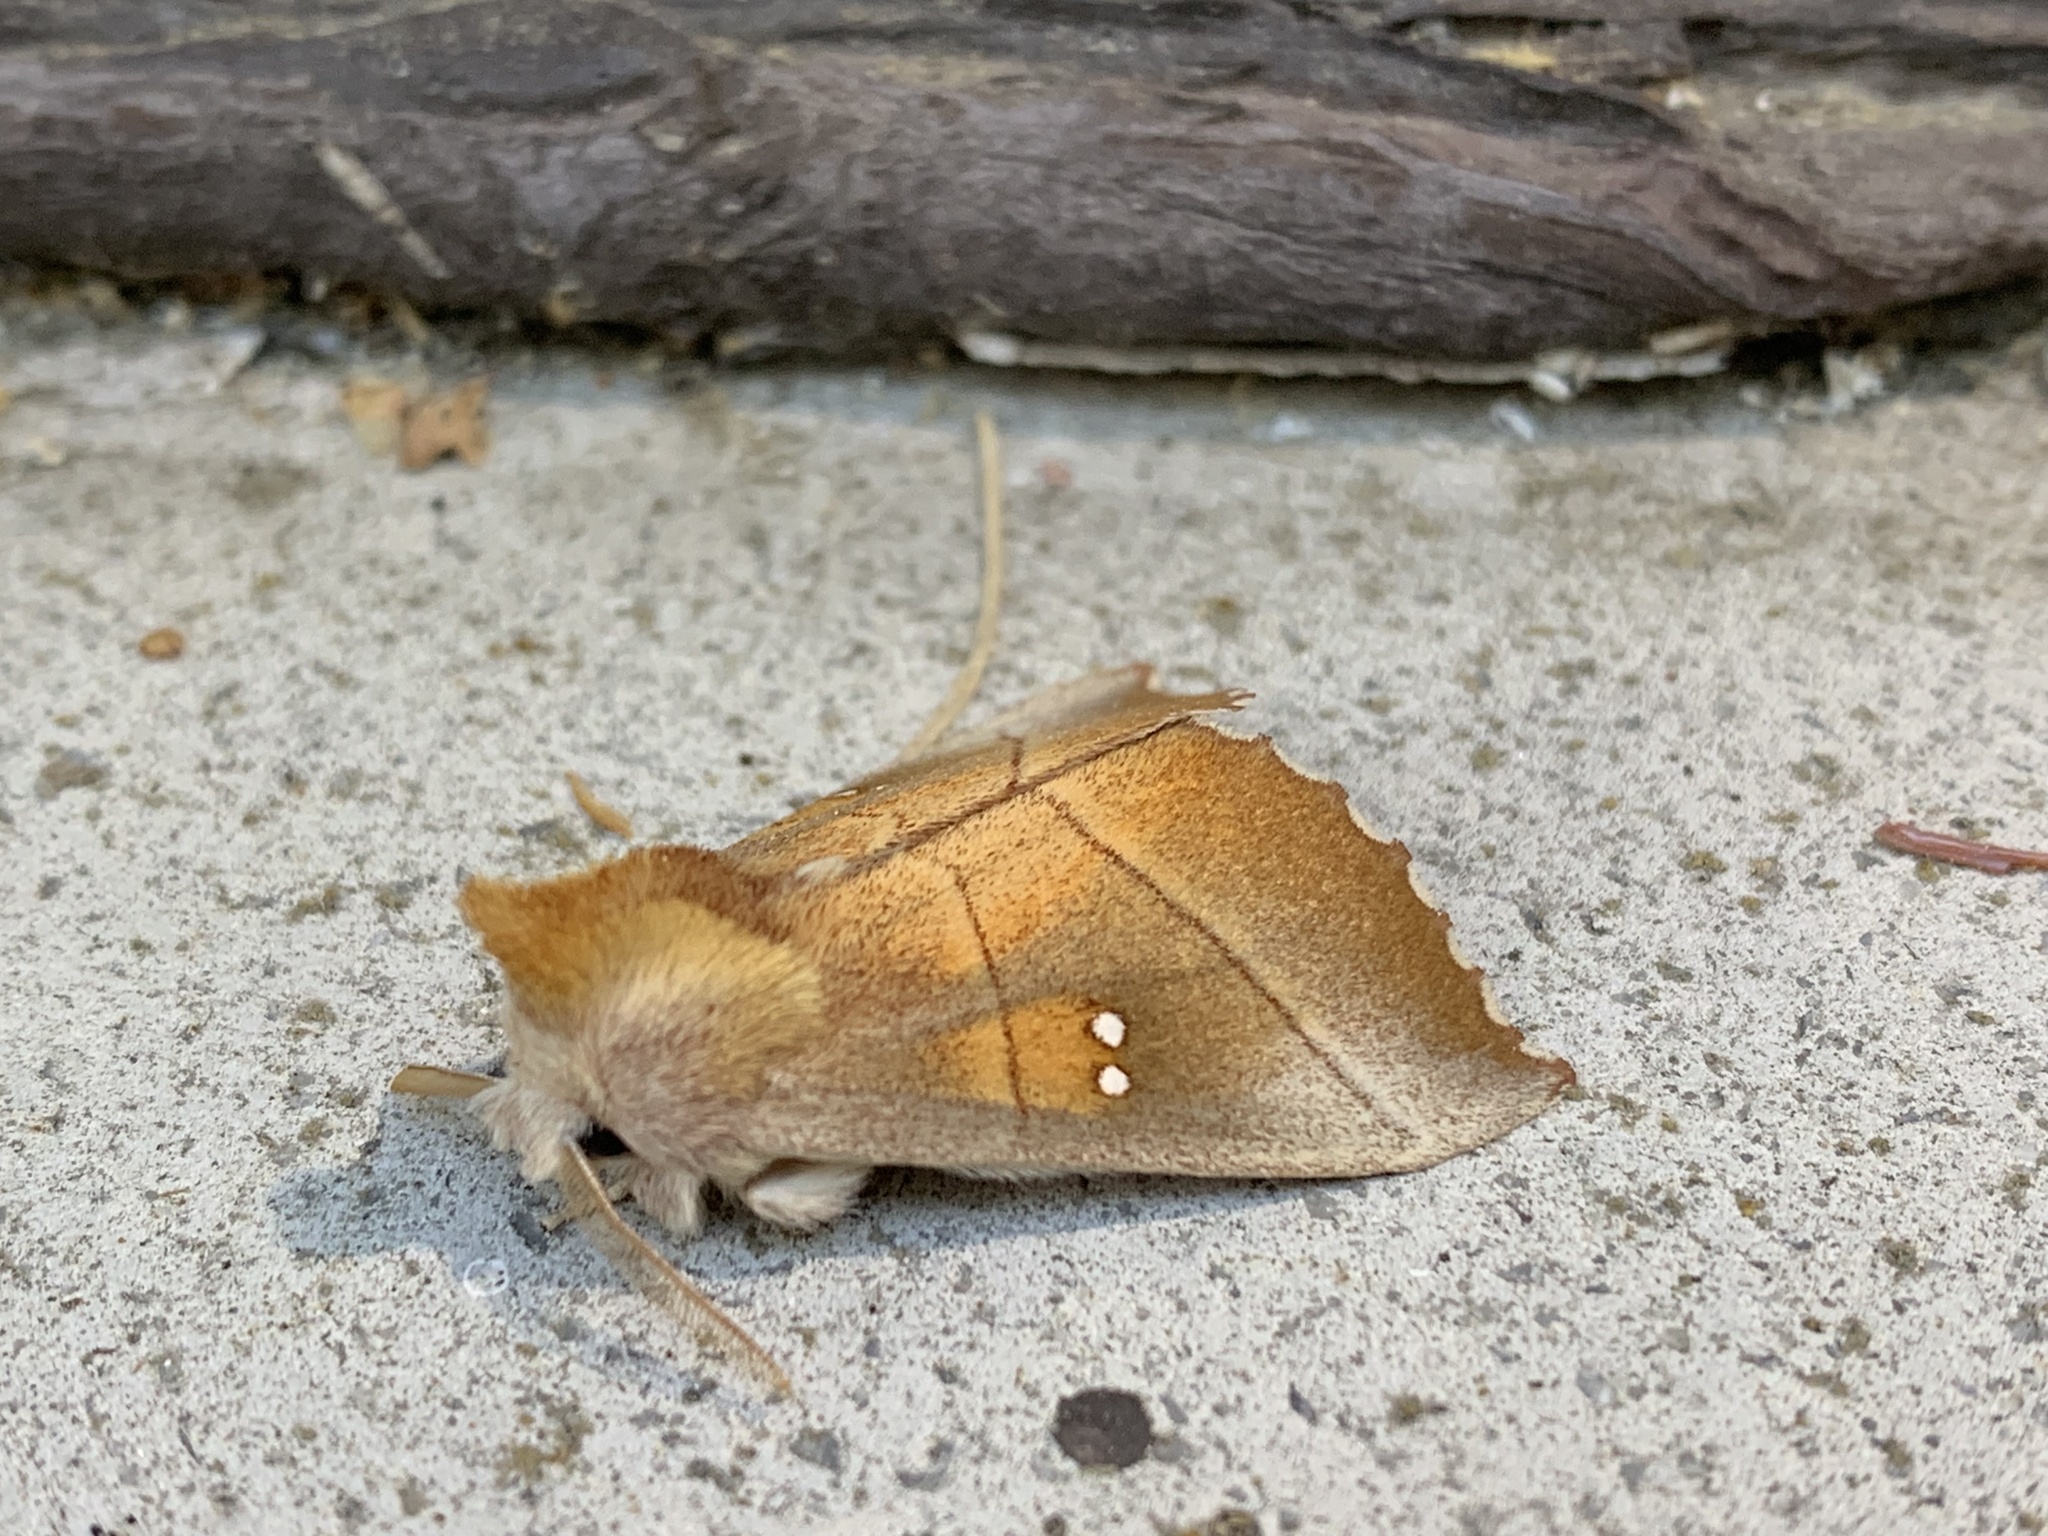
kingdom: Animalia
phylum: Arthropoda
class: Insecta
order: Lepidoptera
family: Notodontidae
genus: Nadata
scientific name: Nadata gibbosa
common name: White-dotted prominent
